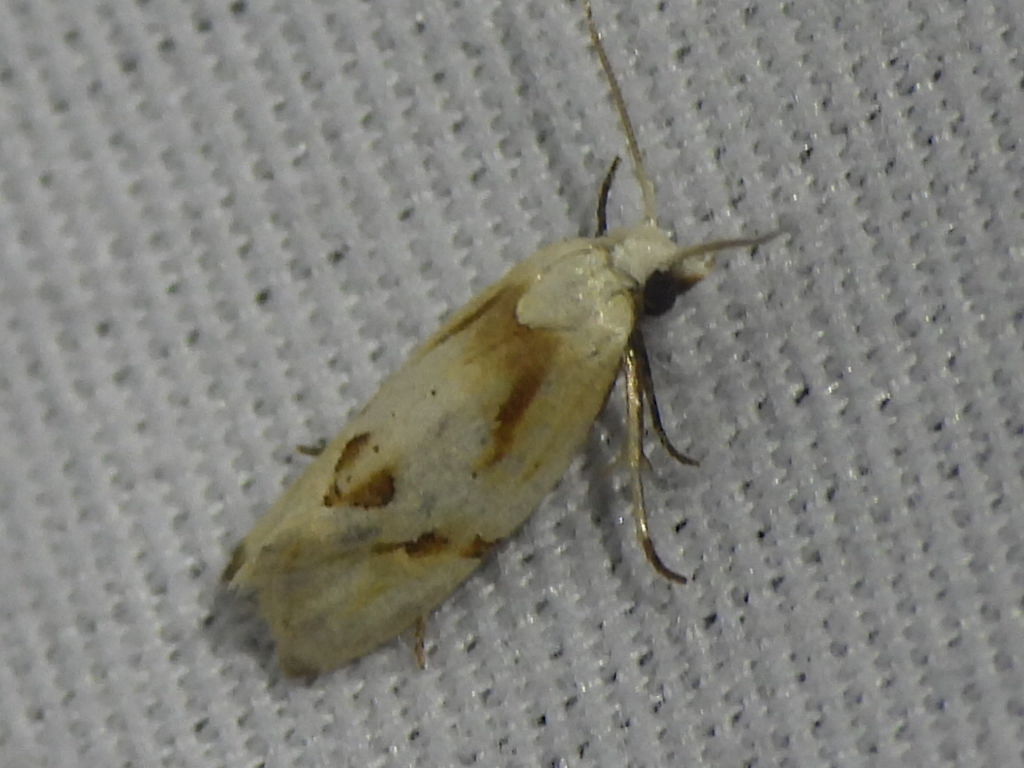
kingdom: Animalia
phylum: Arthropoda
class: Insecta
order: Lepidoptera
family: Tortricidae
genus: Aethes
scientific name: Aethes seriatana
